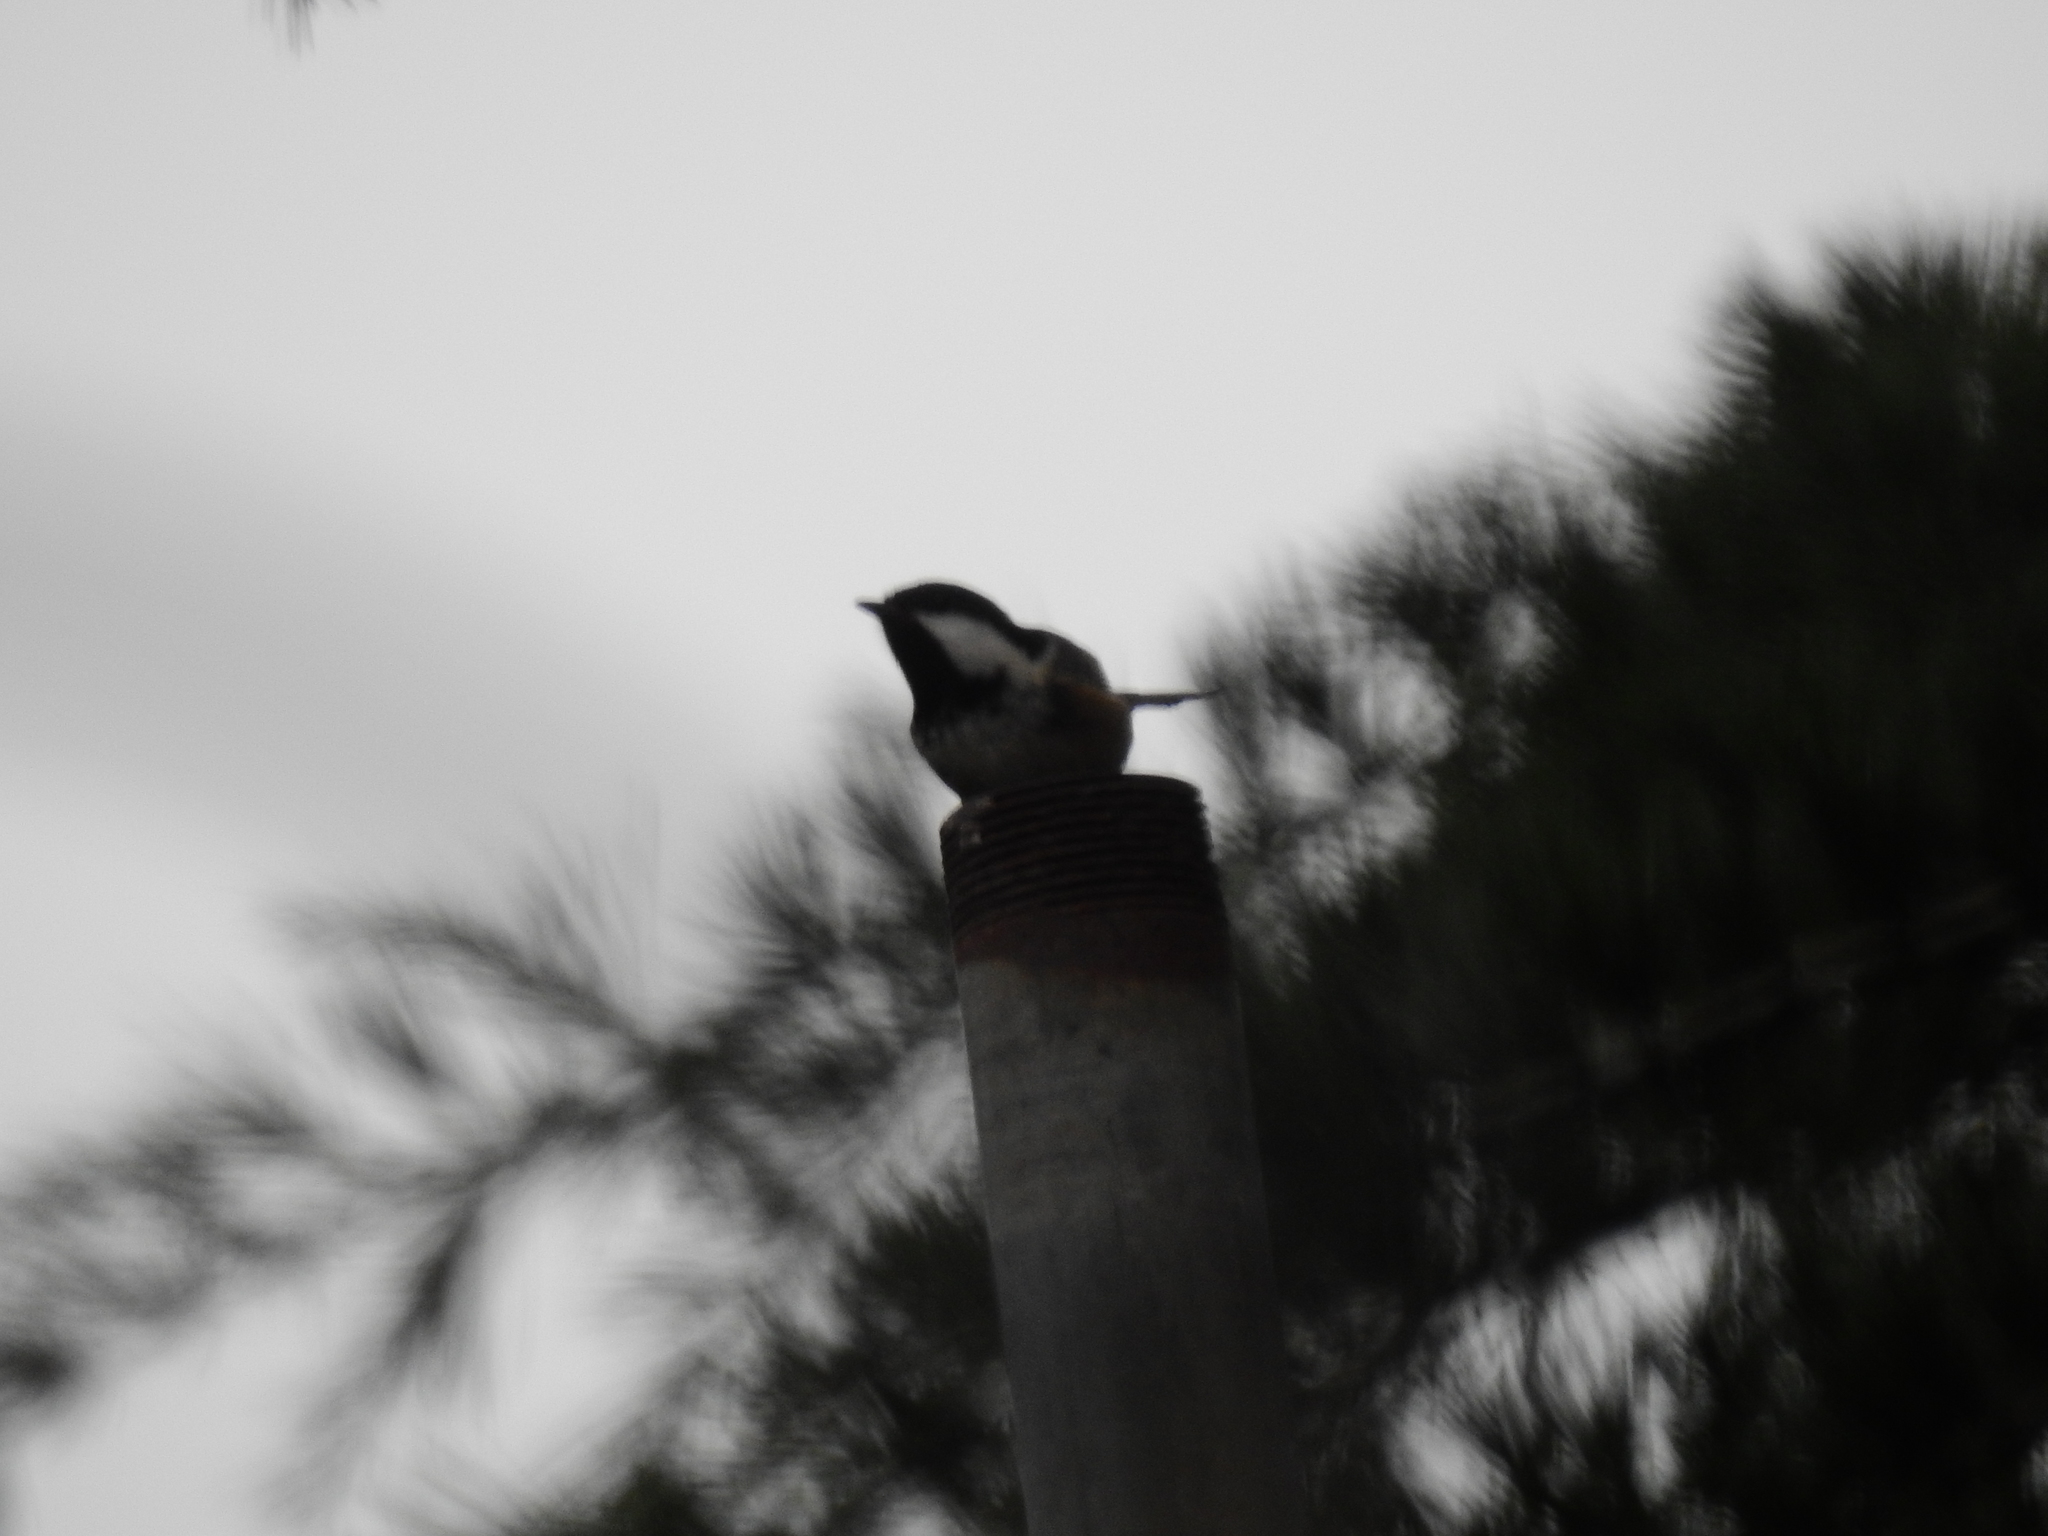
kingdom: Animalia
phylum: Chordata
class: Aves
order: Passeriformes
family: Paridae
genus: Periparus
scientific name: Periparus ater
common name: Coal tit
